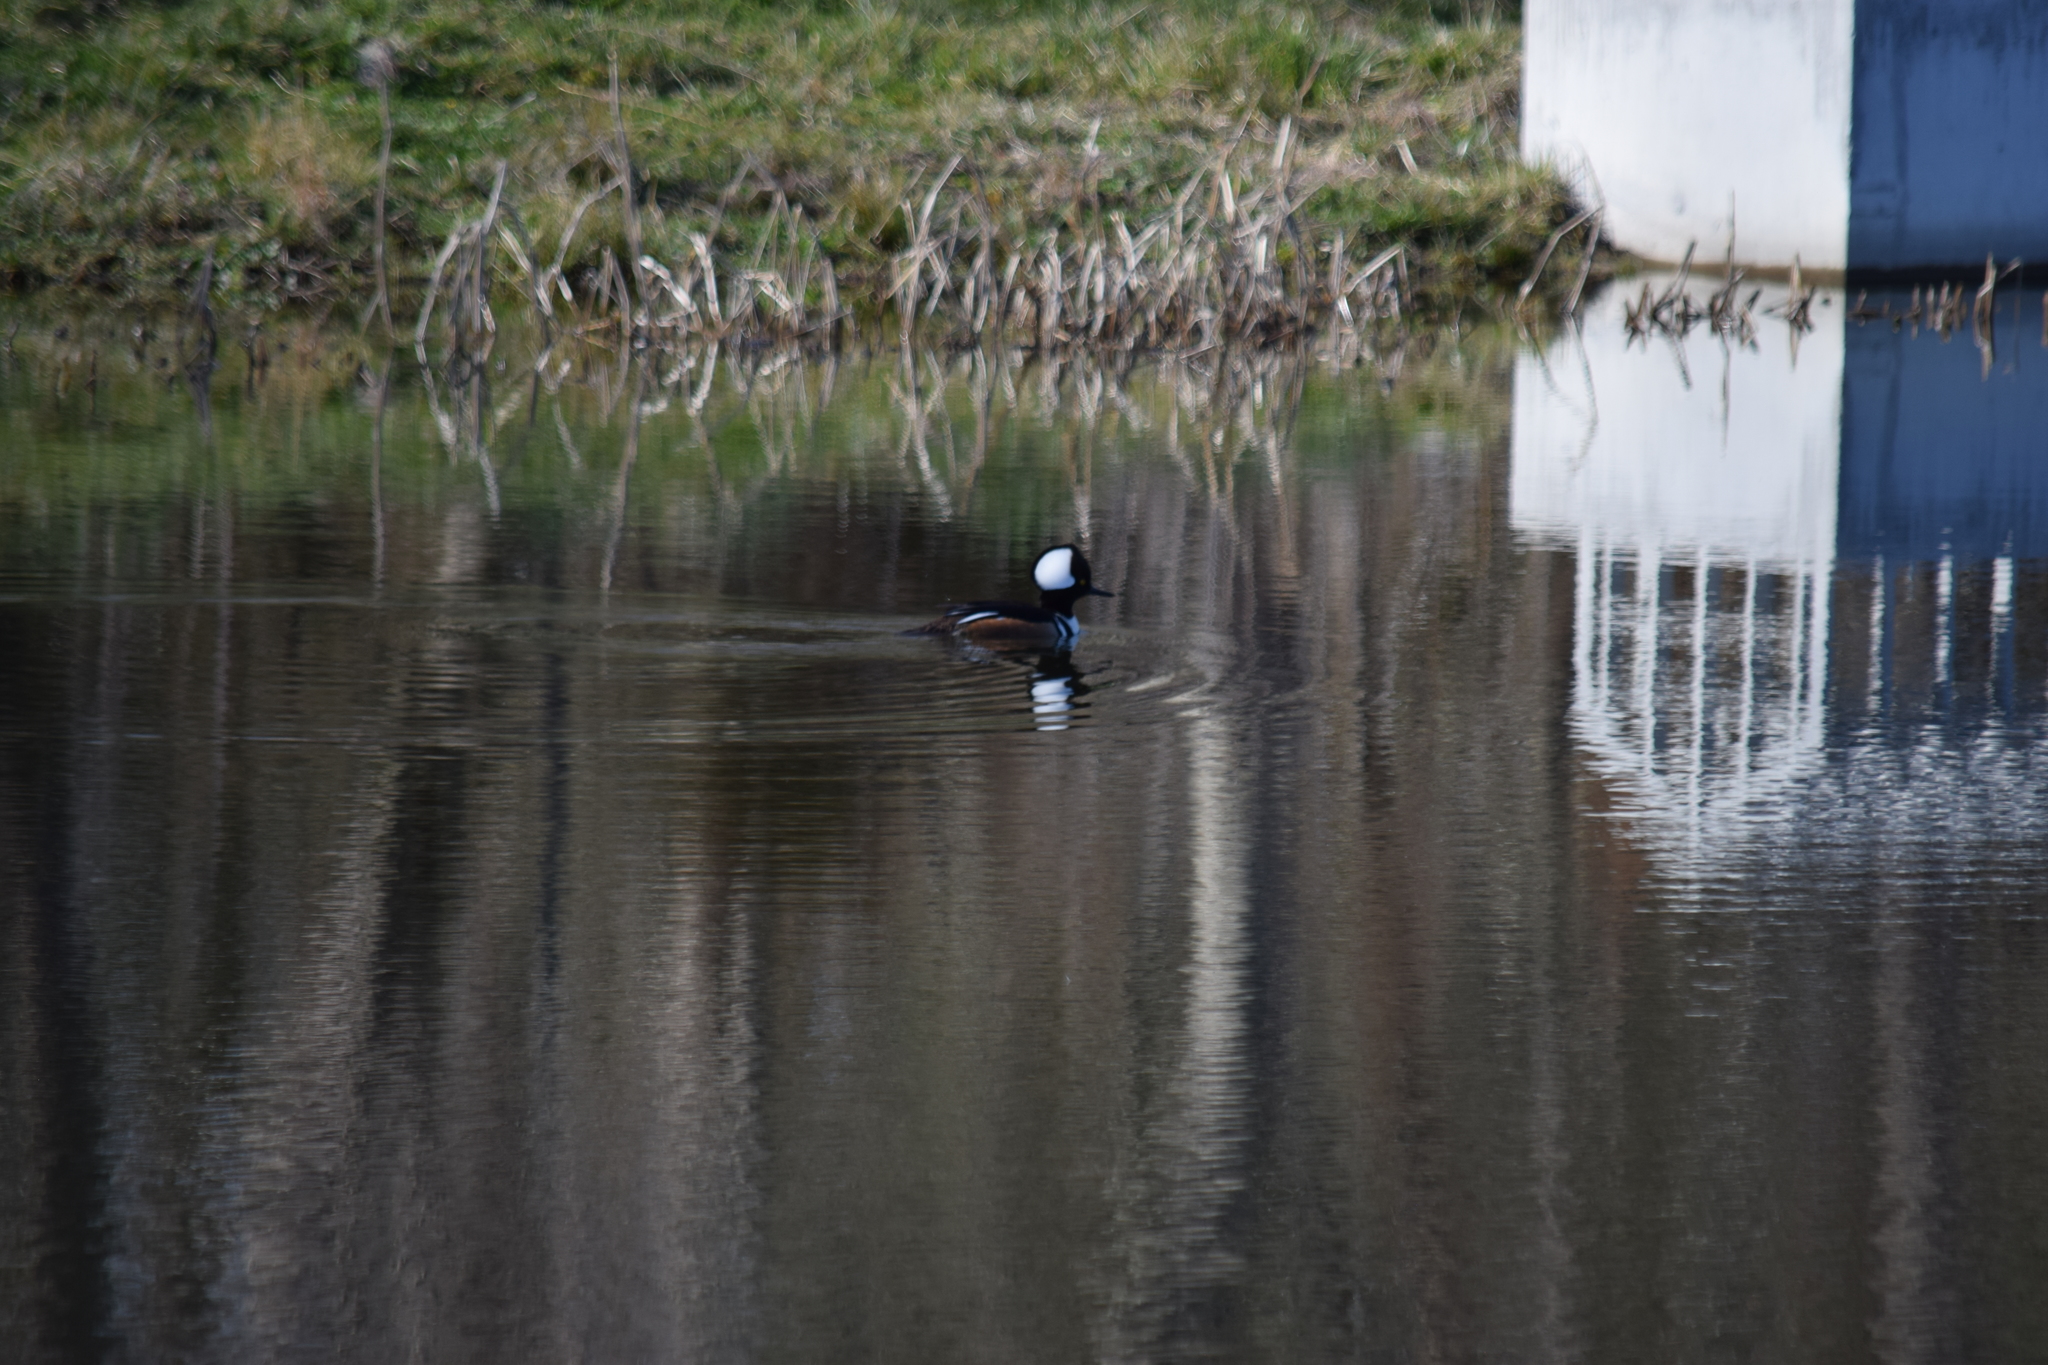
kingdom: Animalia
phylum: Chordata
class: Aves
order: Anseriformes
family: Anatidae
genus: Lophodytes
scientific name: Lophodytes cucullatus
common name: Hooded merganser
